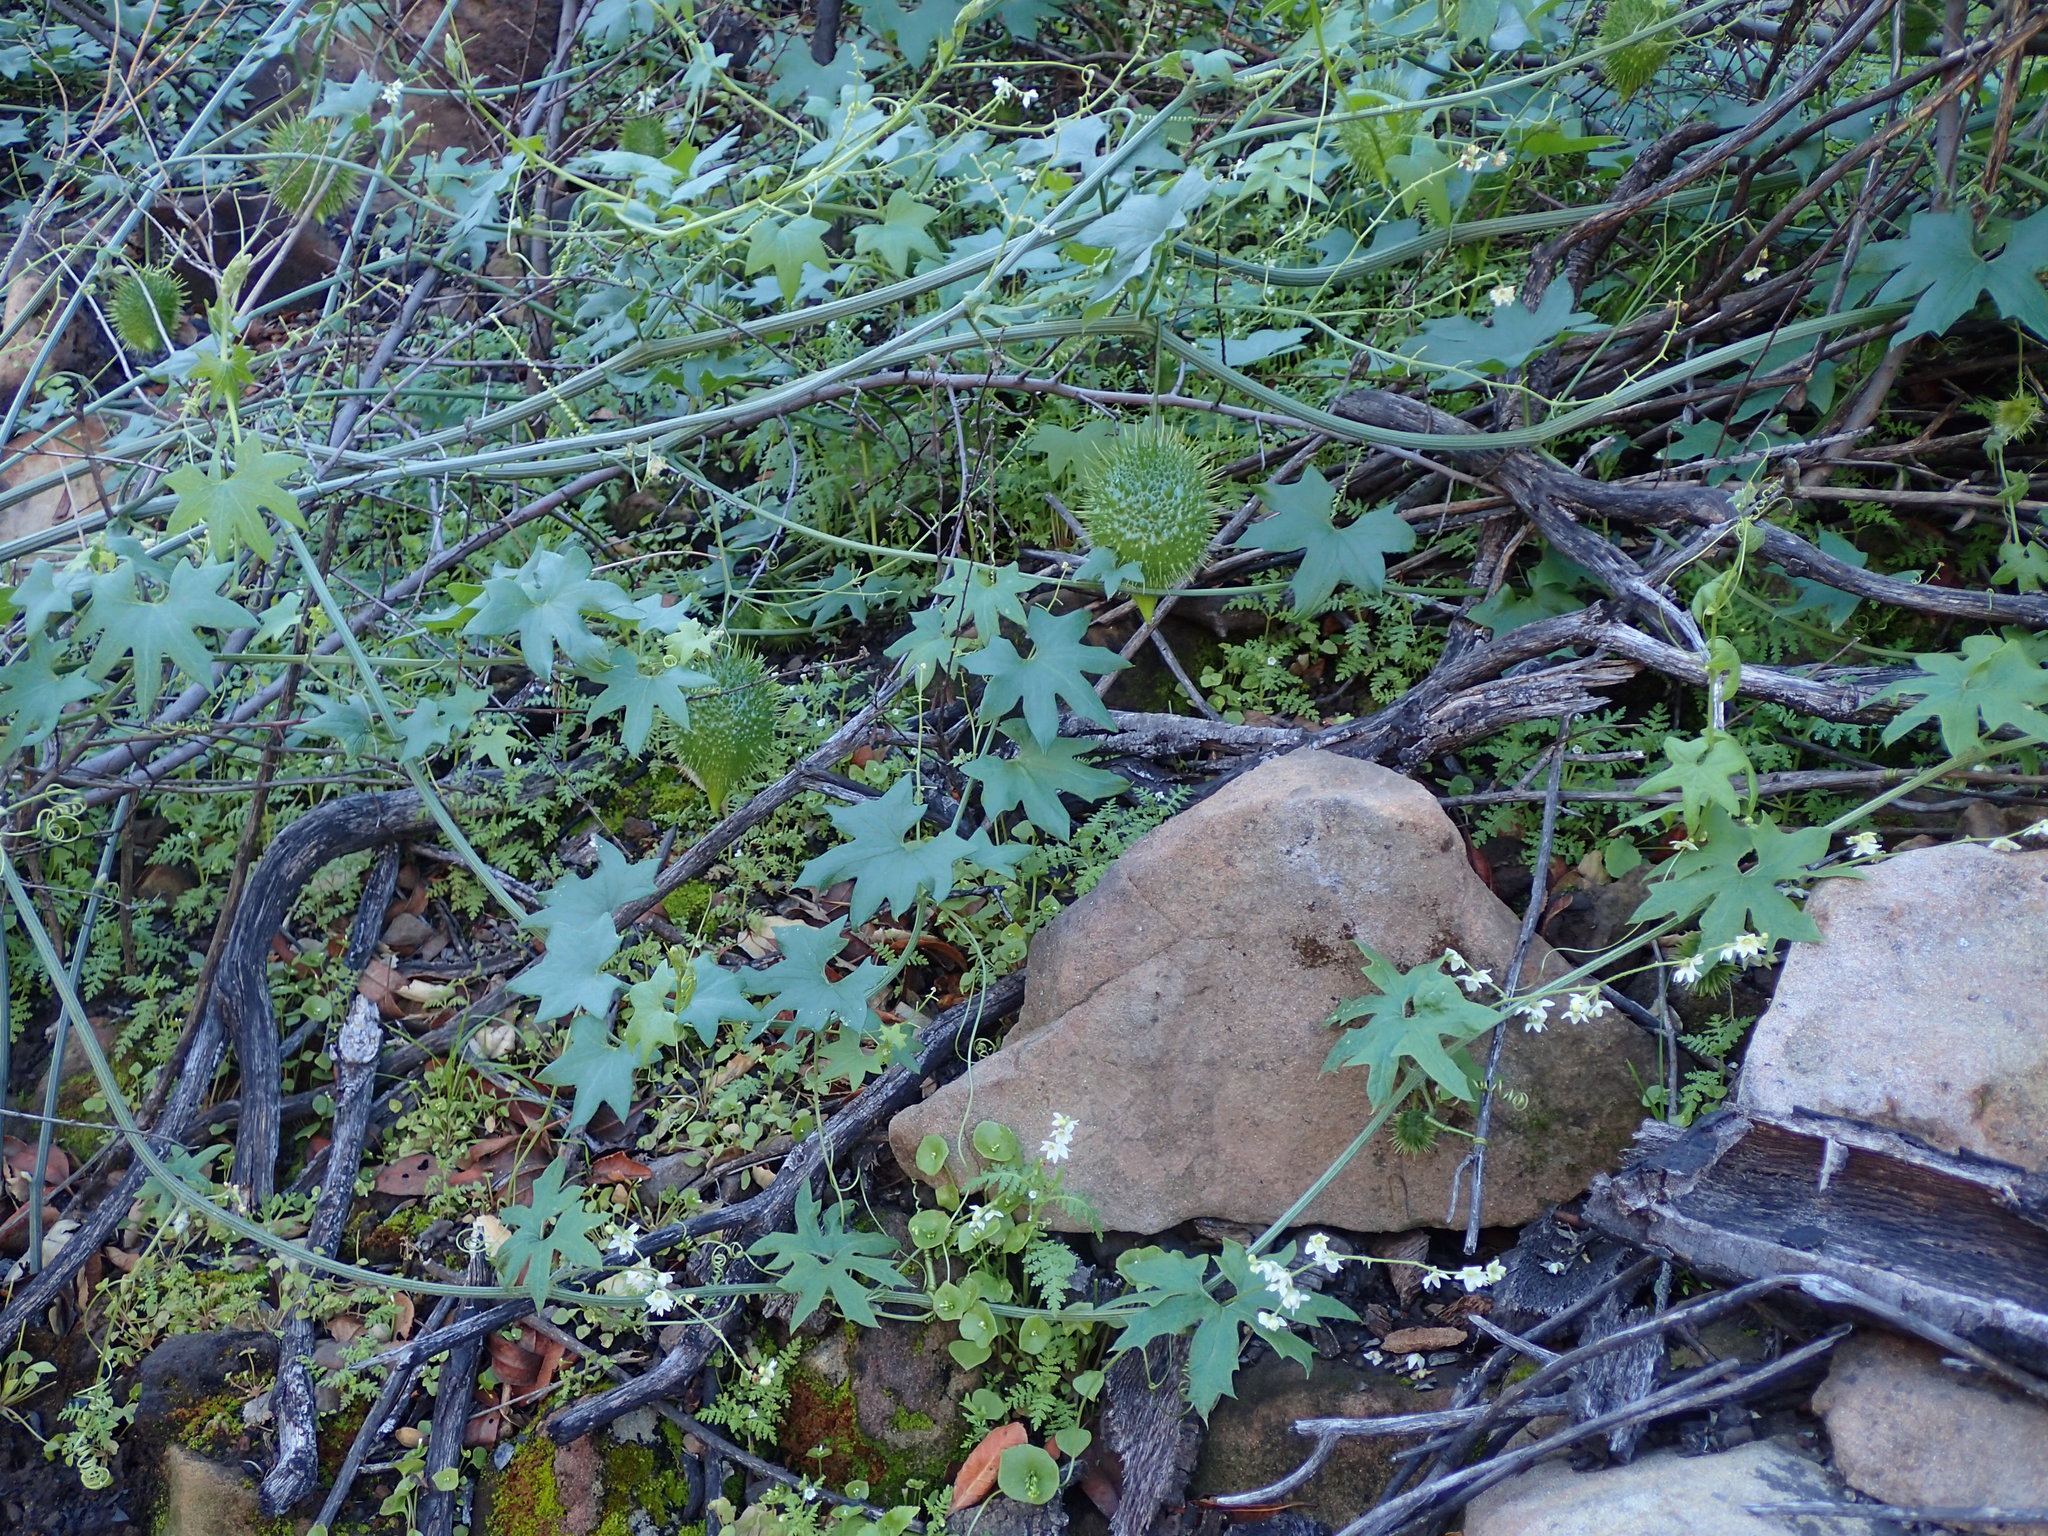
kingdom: Plantae
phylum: Tracheophyta
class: Magnoliopsida
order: Cucurbitales
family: Cucurbitaceae
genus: Marah
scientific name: Marah macrocarpa
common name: Cucamonga manroot
